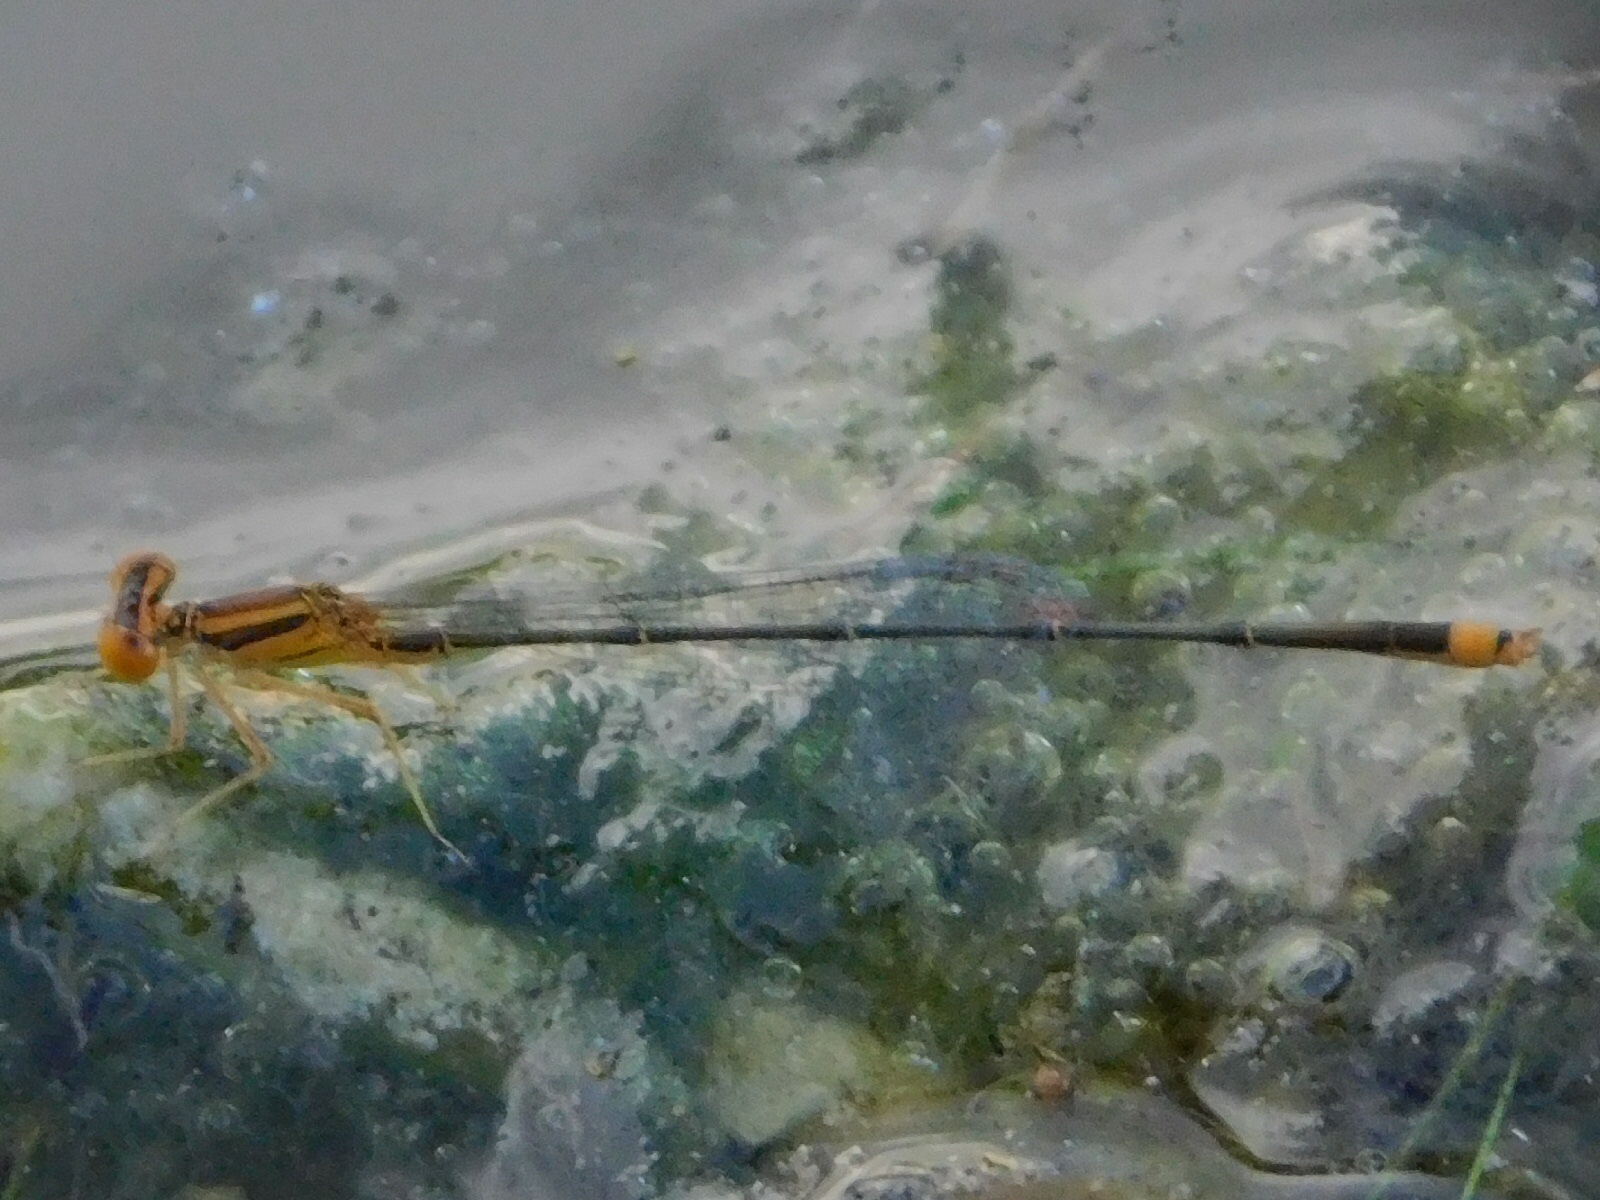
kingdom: Animalia
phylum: Arthropoda
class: Insecta
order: Odonata
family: Coenagrionidae
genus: Enallagma
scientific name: Enallagma pollutum
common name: Florida bluet
